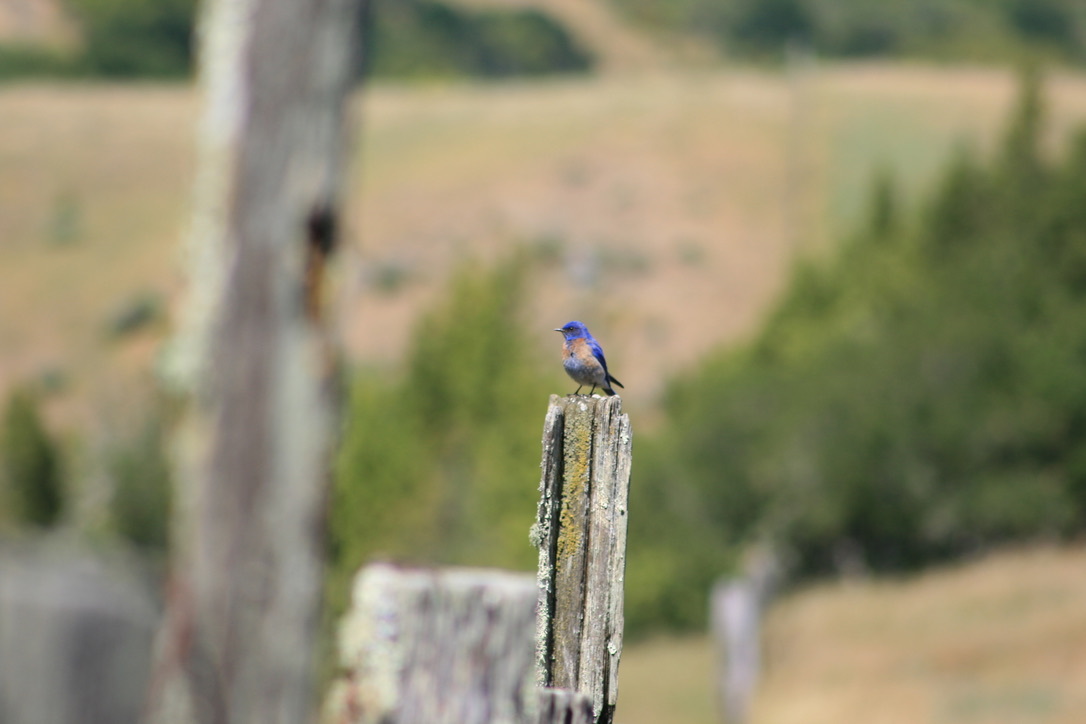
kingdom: Animalia
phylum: Chordata
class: Aves
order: Passeriformes
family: Turdidae
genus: Sialia
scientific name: Sialia mexicana
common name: Western bluebird
